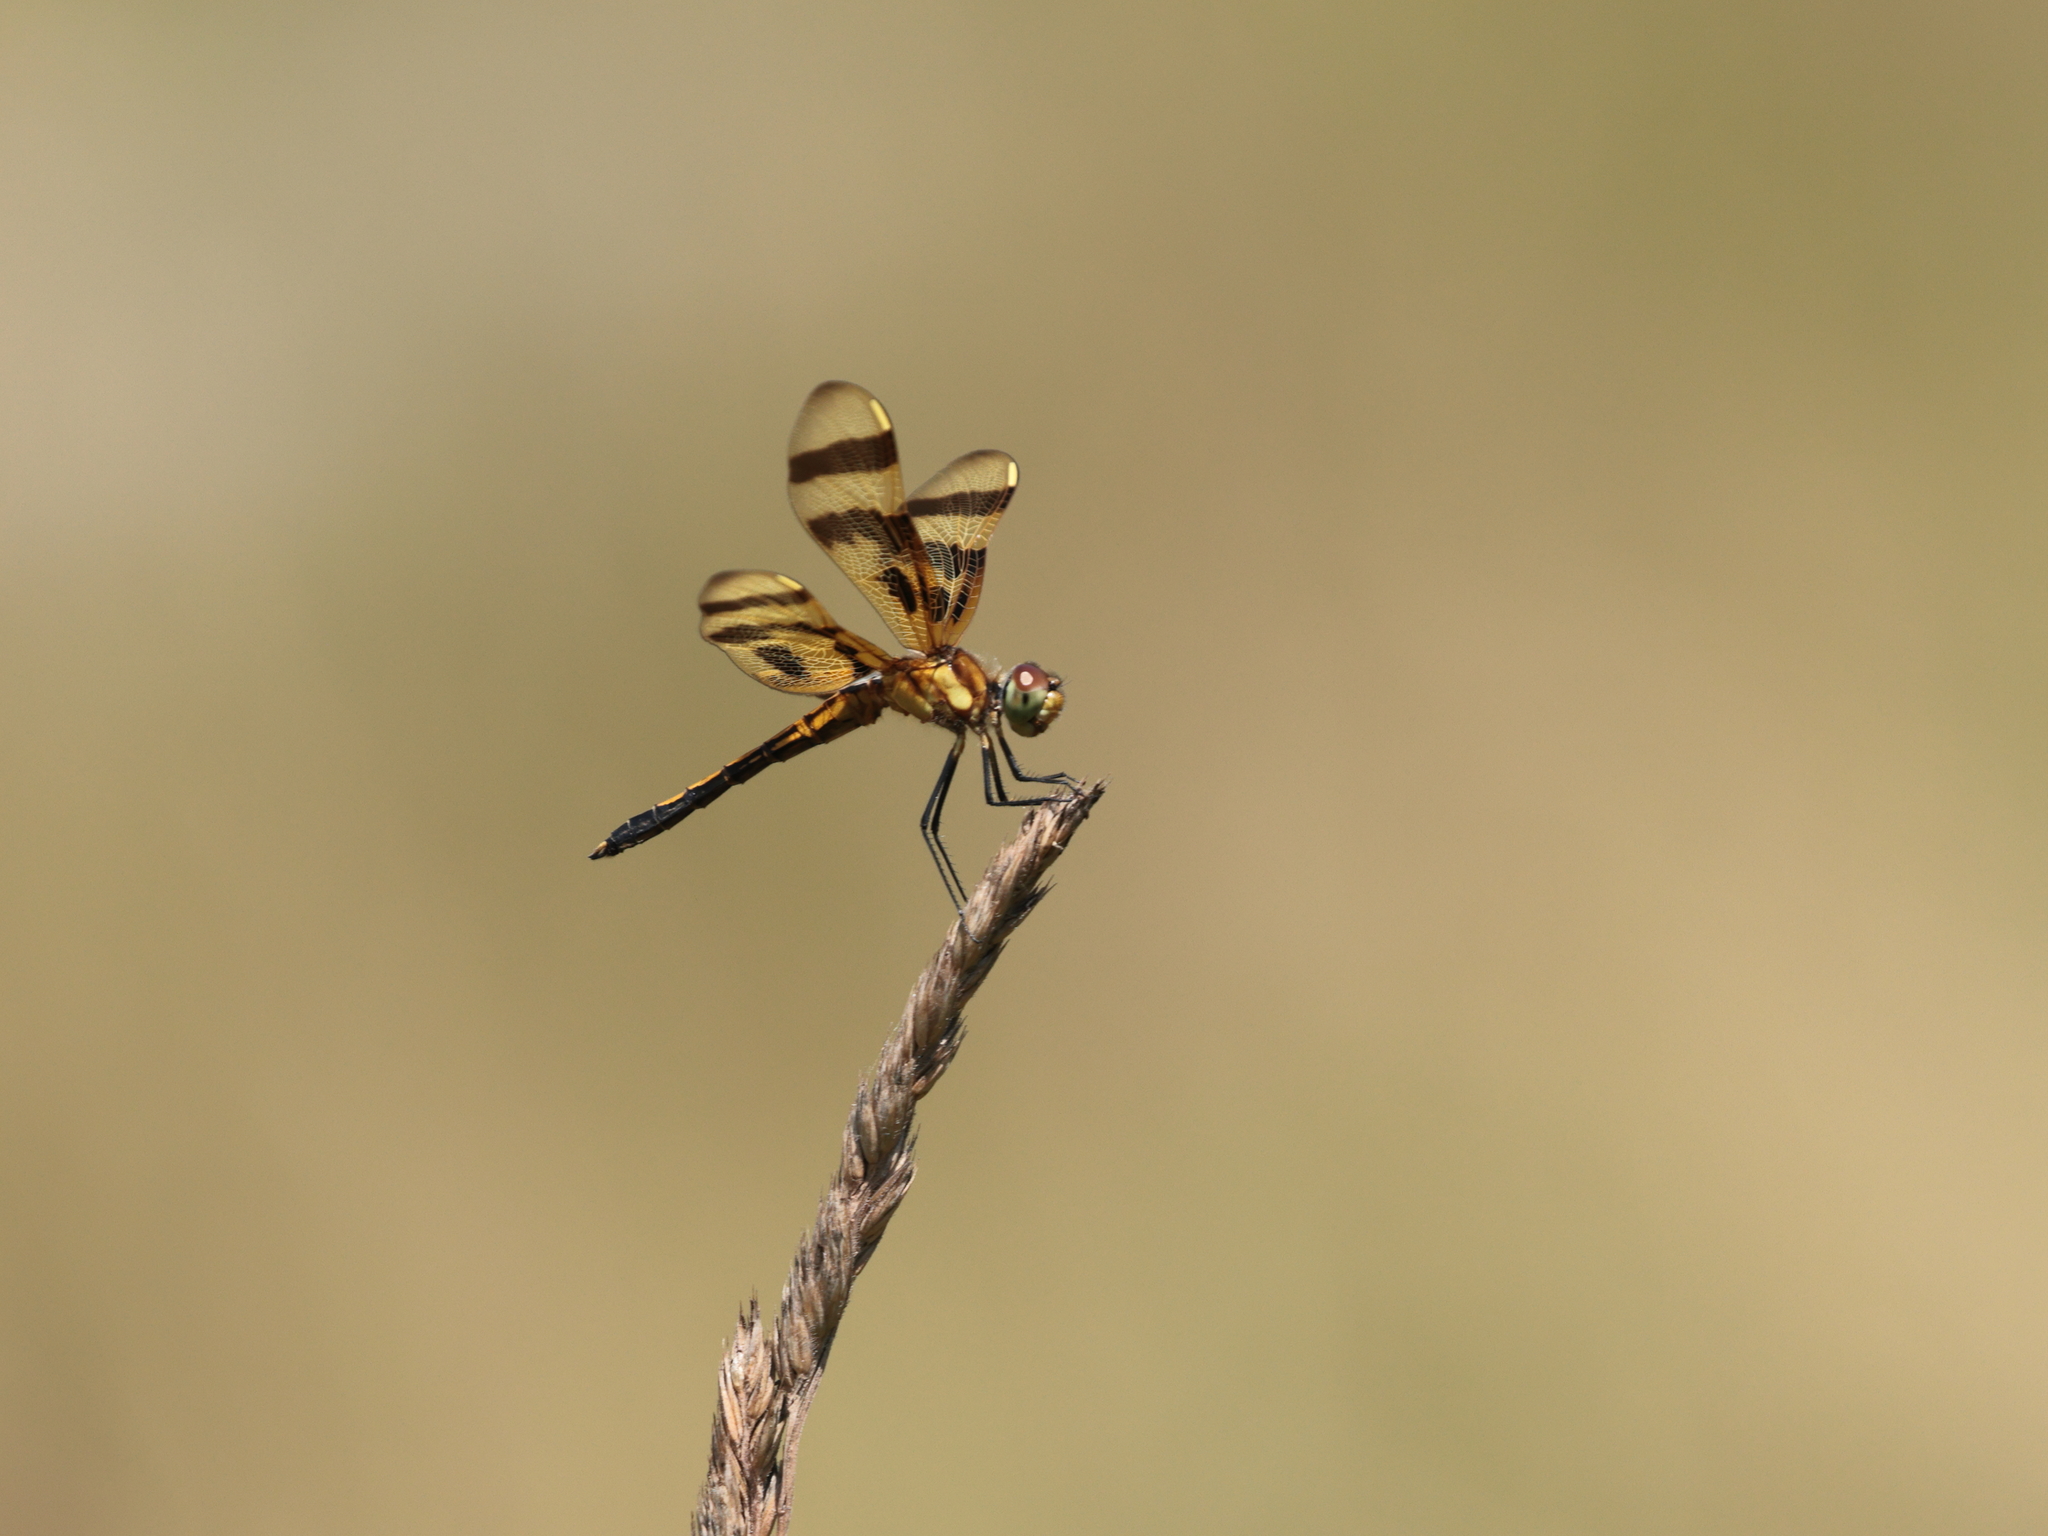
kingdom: Animalia
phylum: Arthropoda
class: Insecta
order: Odonata
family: Libellulidae
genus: Celithemis
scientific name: Celithemis eponina
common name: Halloween pennant
